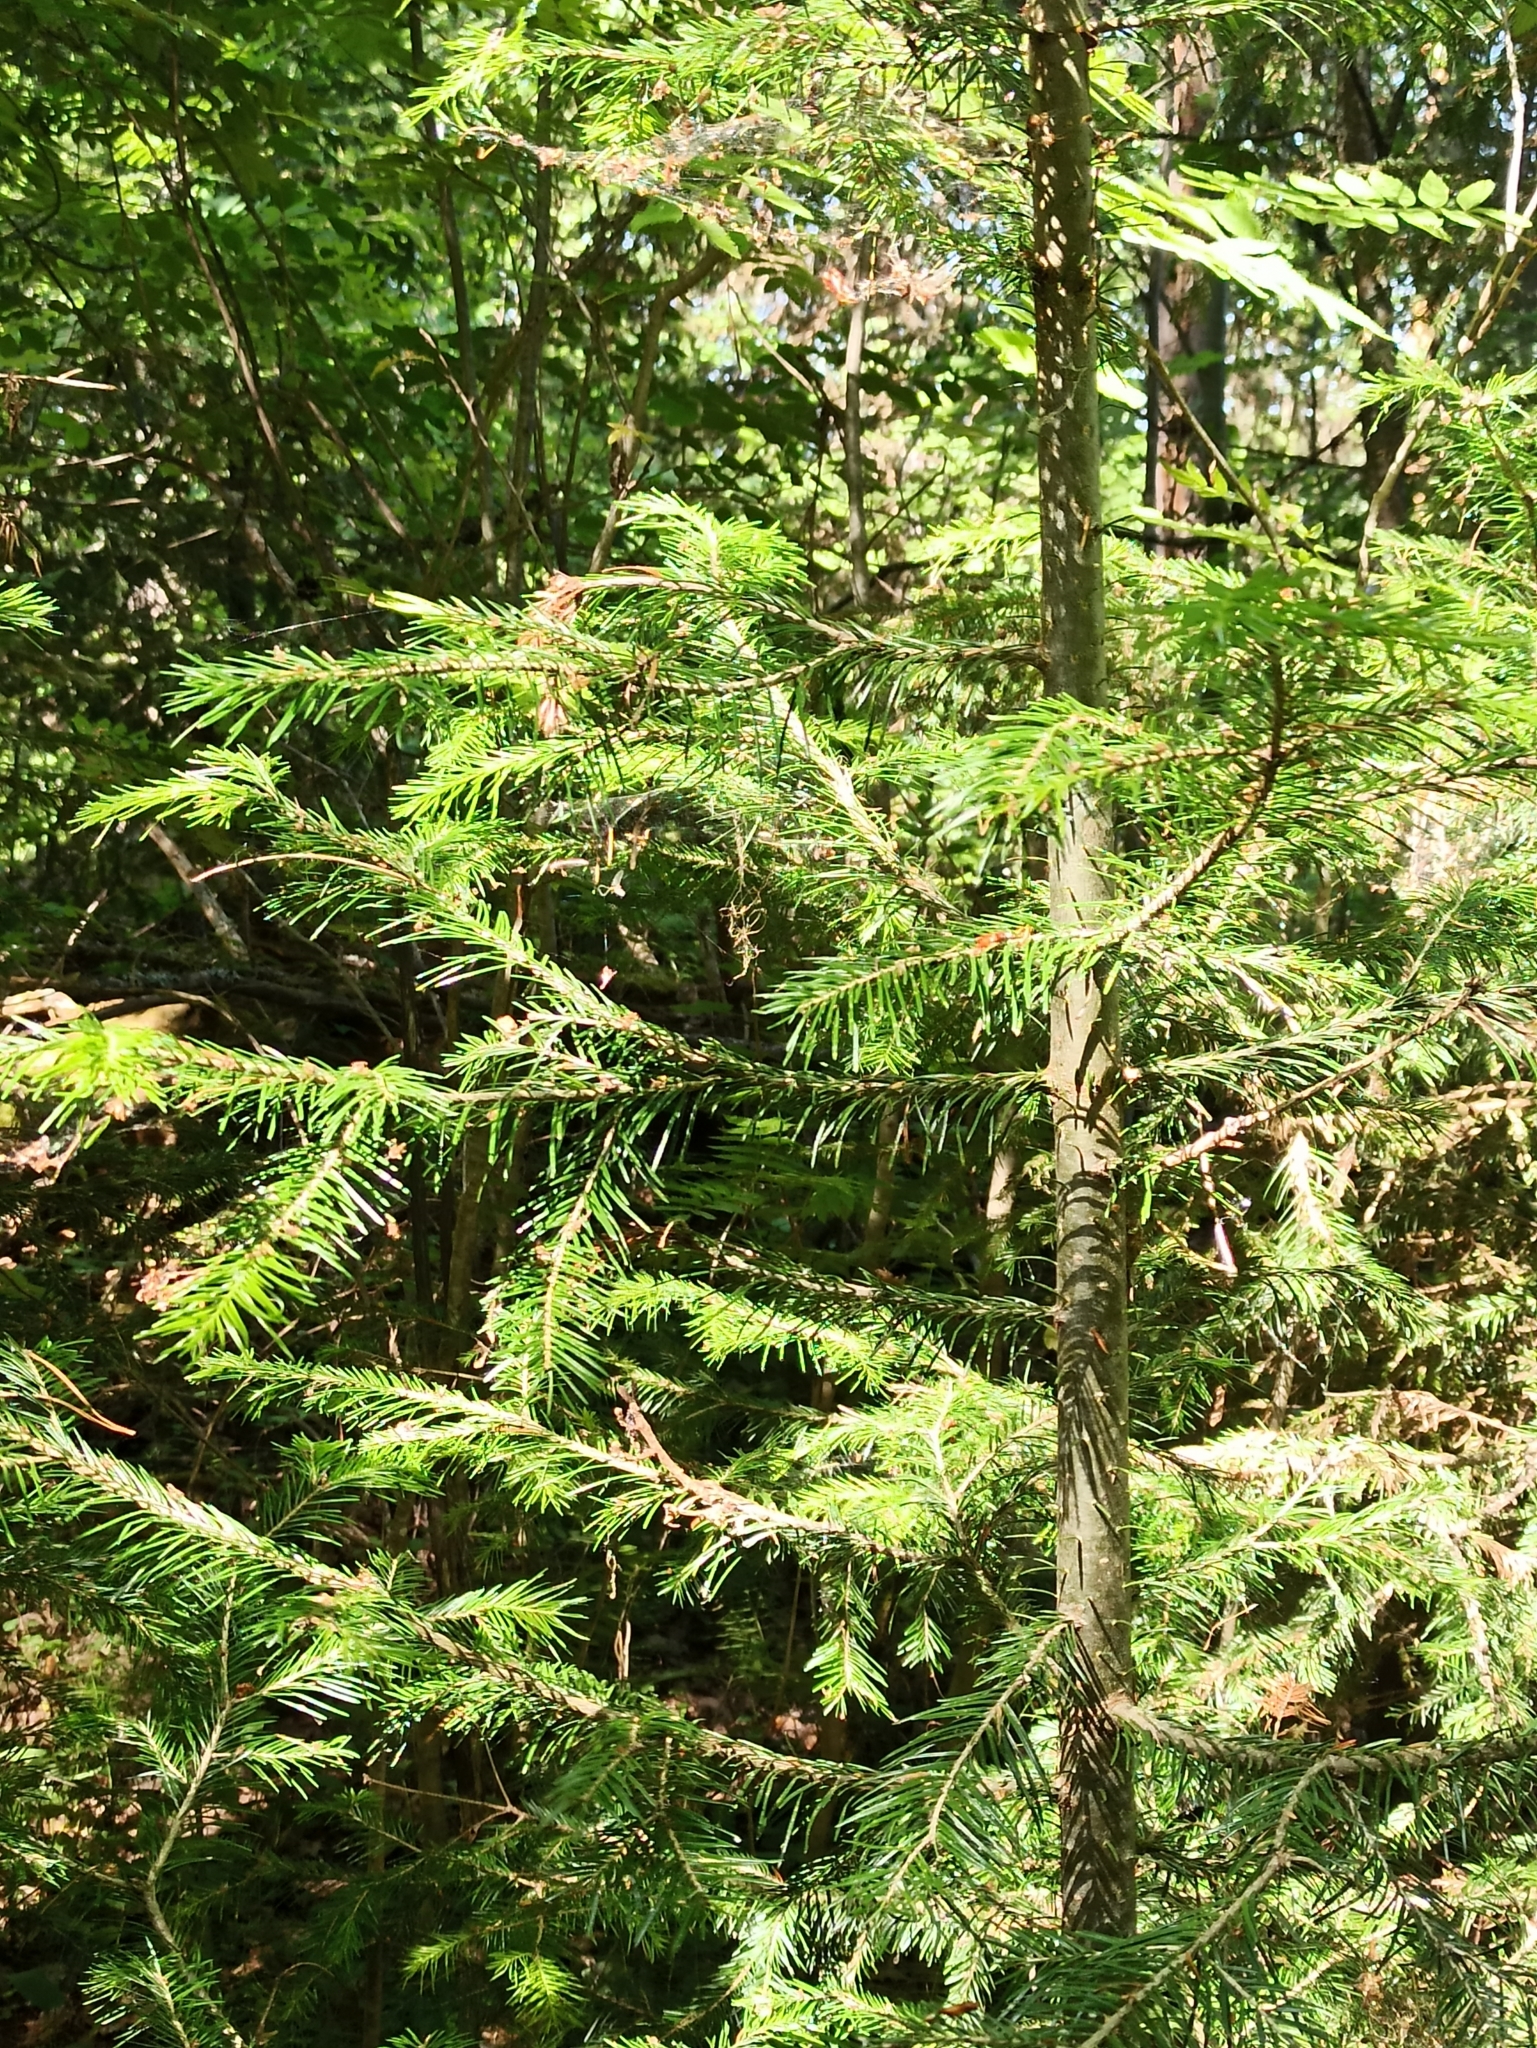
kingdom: Plantae
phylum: Tracheophyta
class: Pinopsida
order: Pinales
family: Pinaceae
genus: Abies
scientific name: Abies sibirica
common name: Siberian fir
